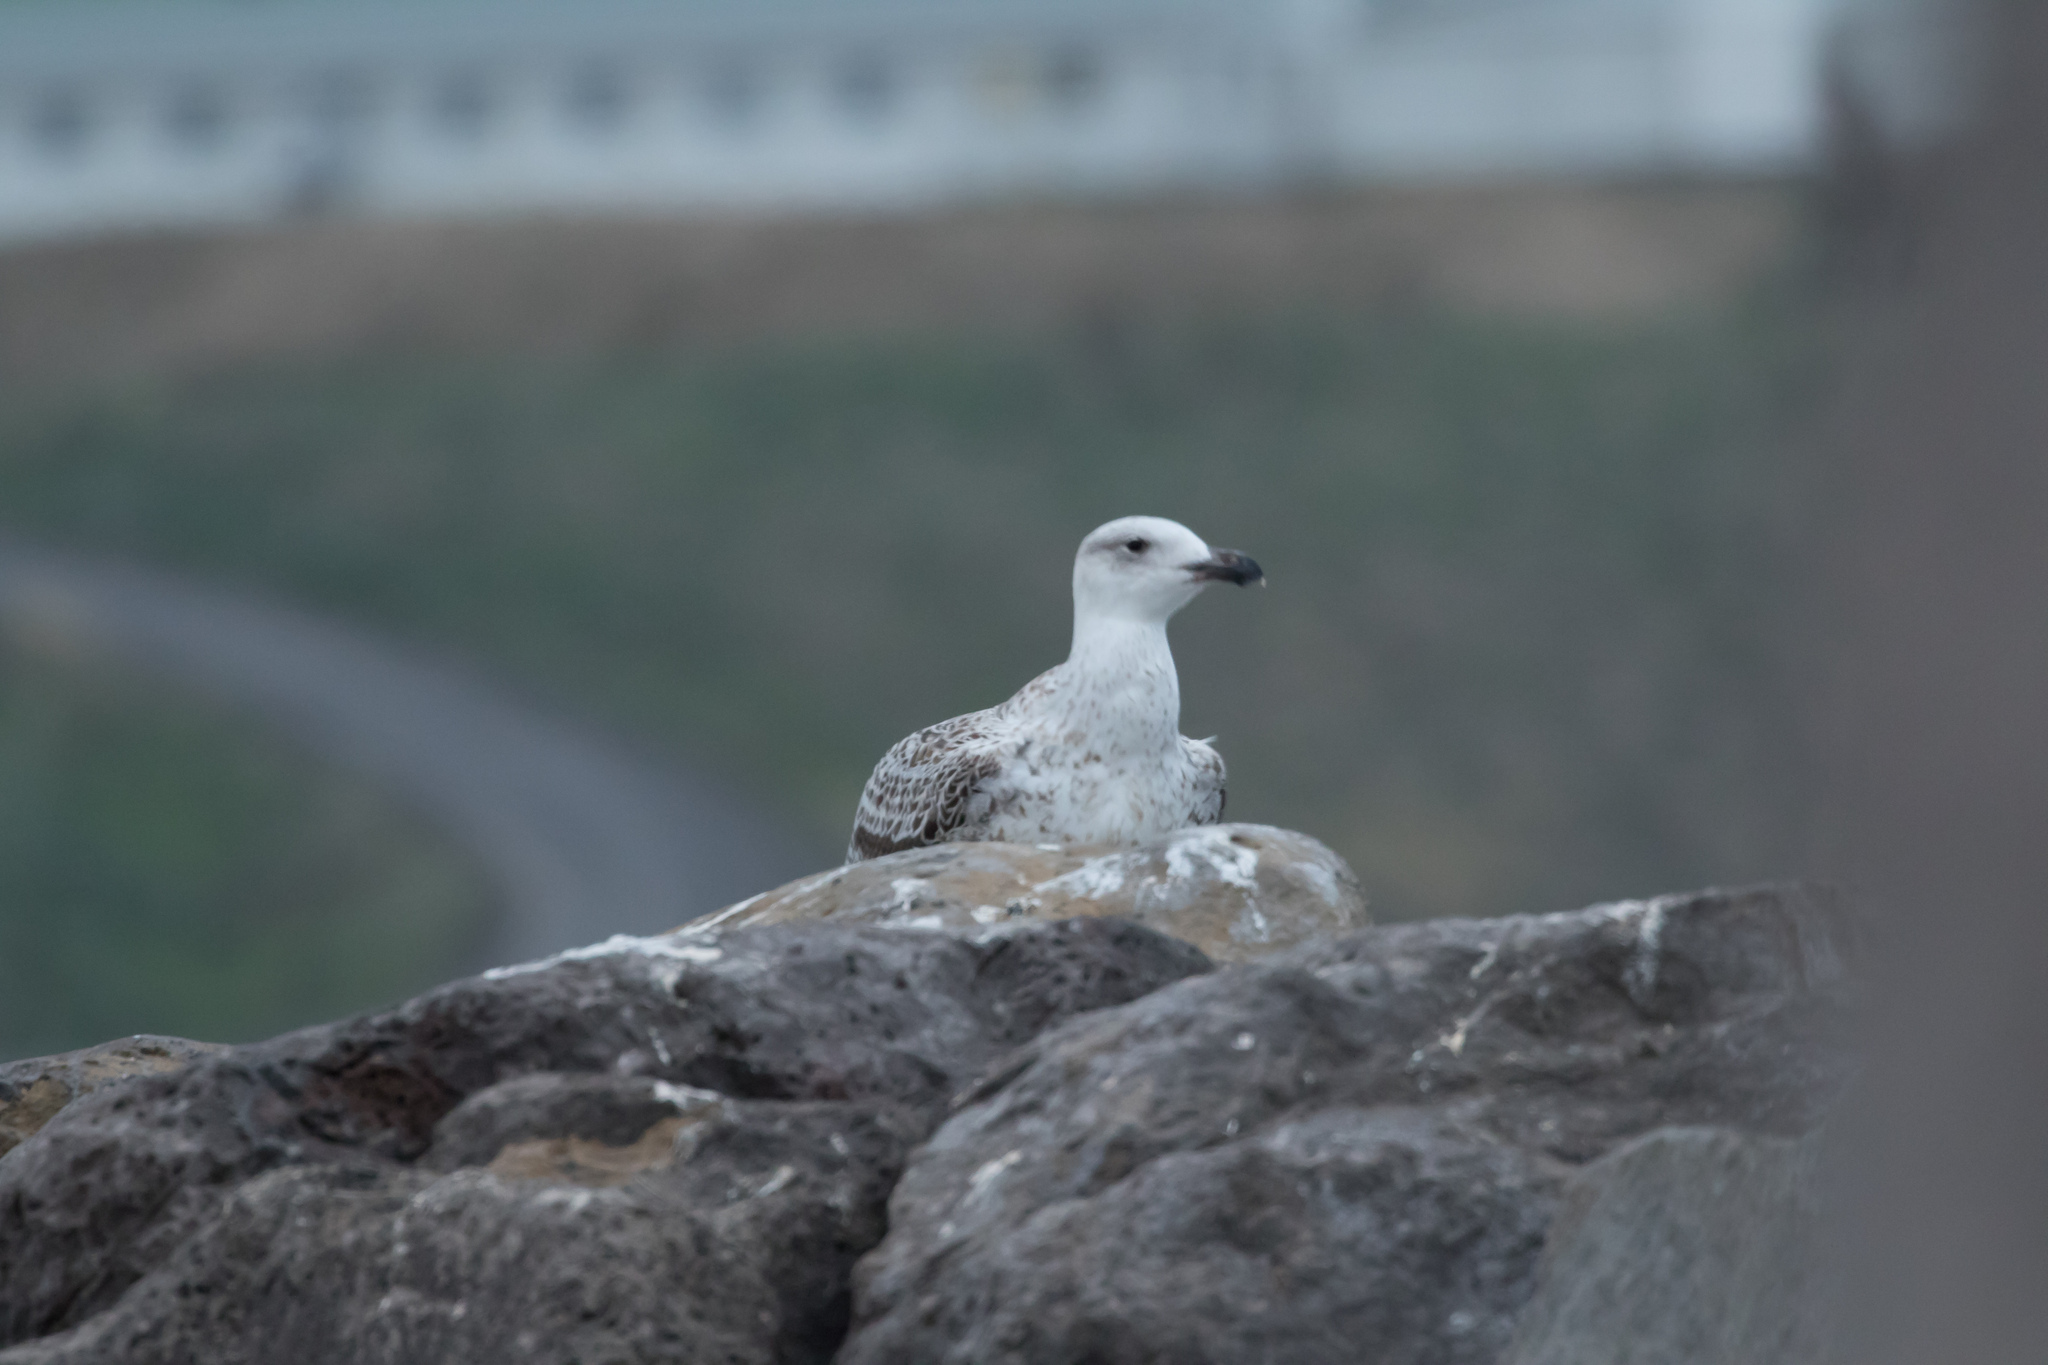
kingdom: Animalia
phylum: Chordata
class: Aves
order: Charadriiformes
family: Laridae
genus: Larus
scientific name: Larus marinus
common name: Great black-backed gull
